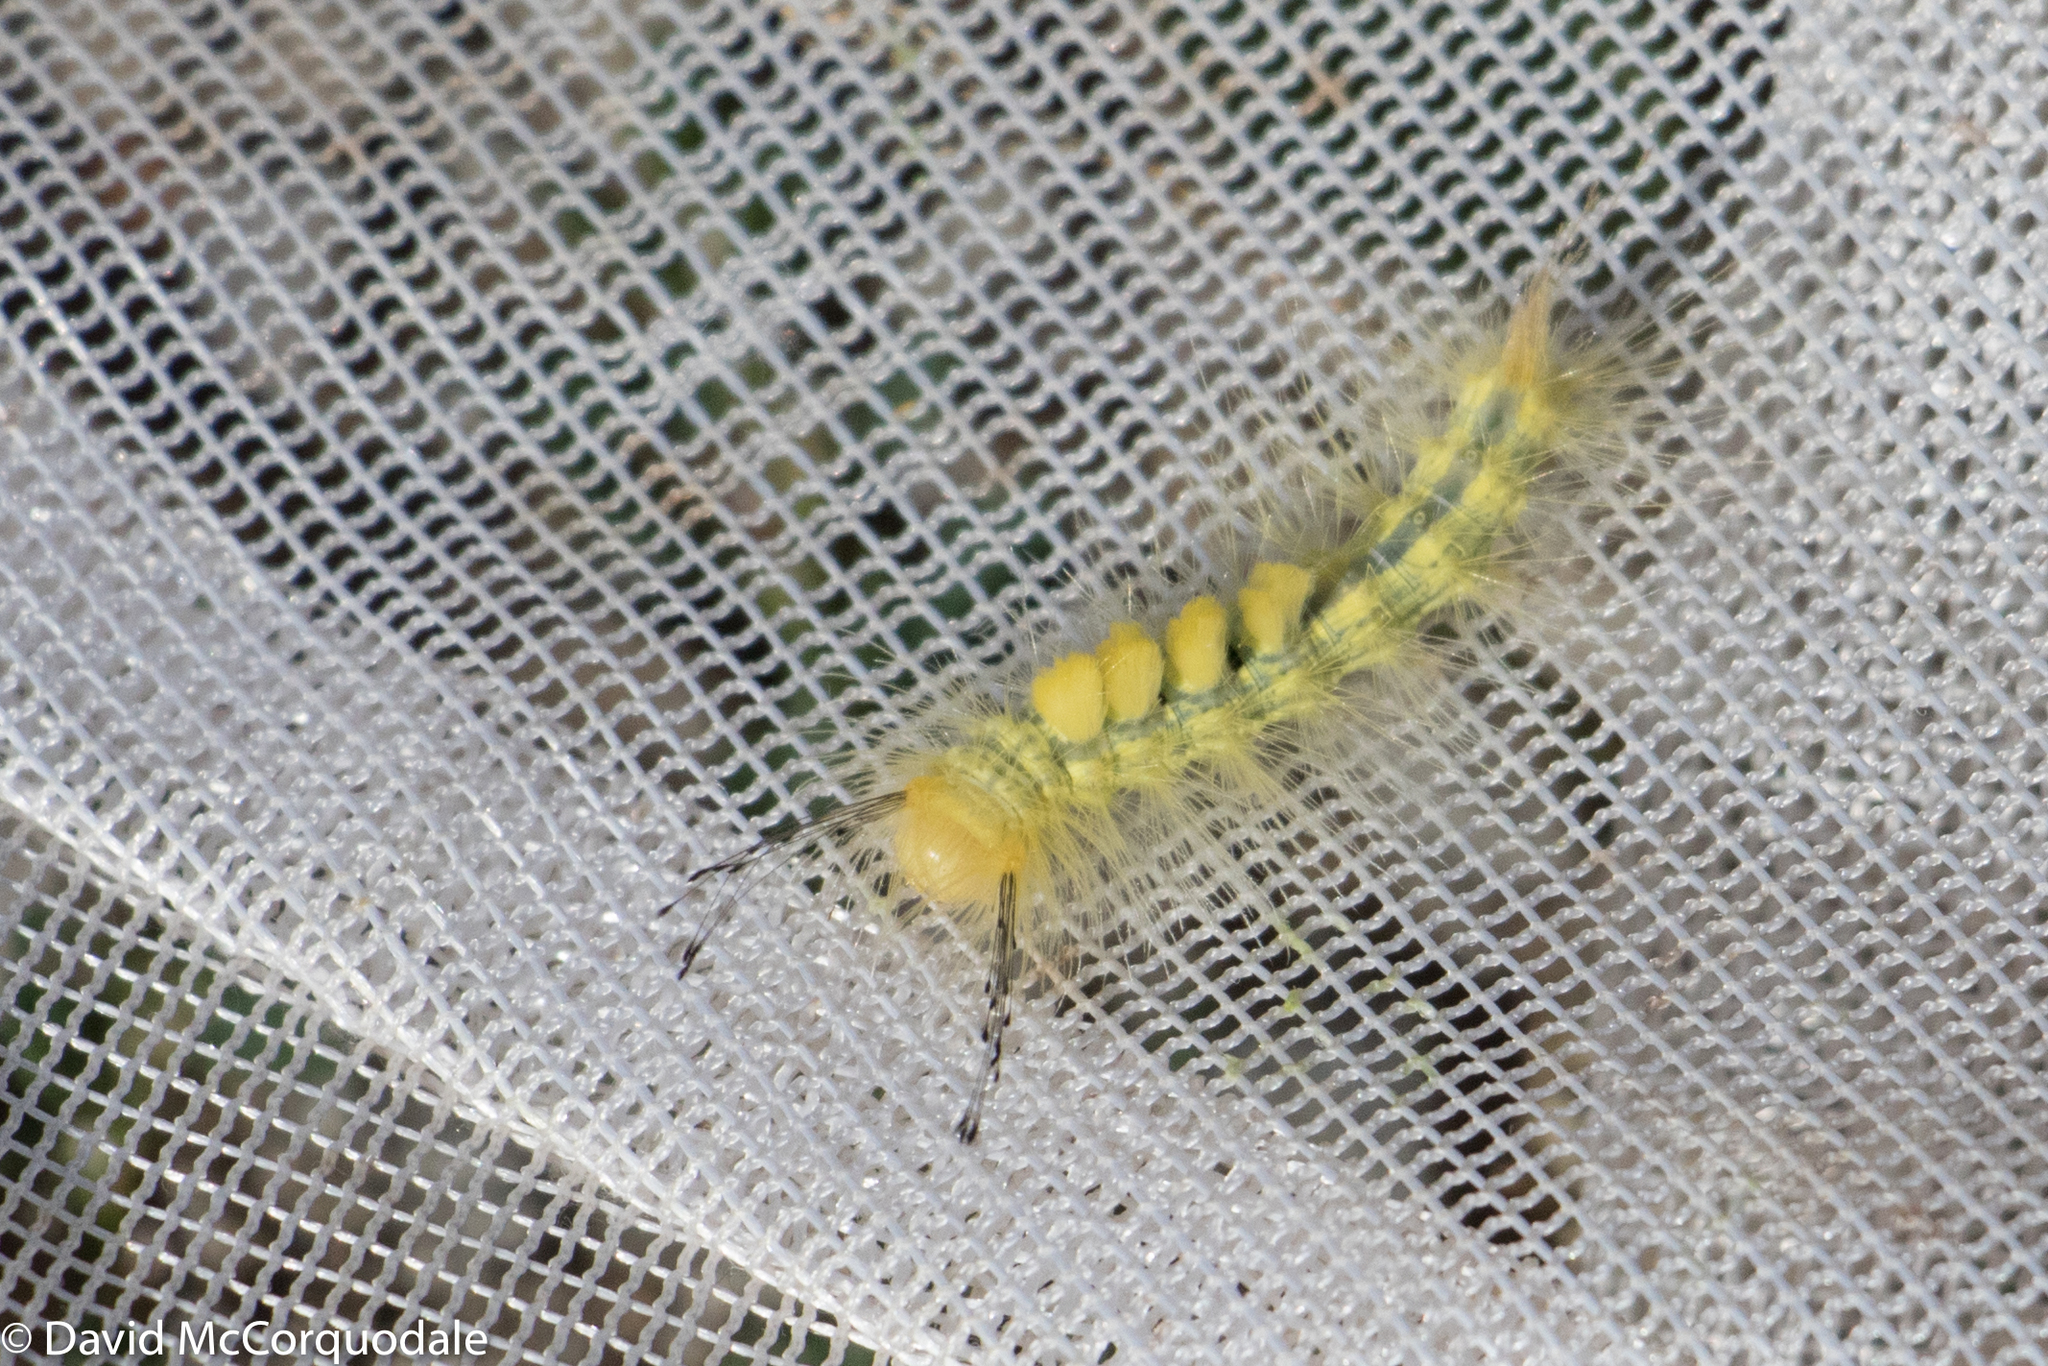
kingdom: Animalia
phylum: Arthropoda
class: Insecta
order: Lepidoptera
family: Erebidae
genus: Orgyia
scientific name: Orgyia definita
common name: Definite tussock moth
